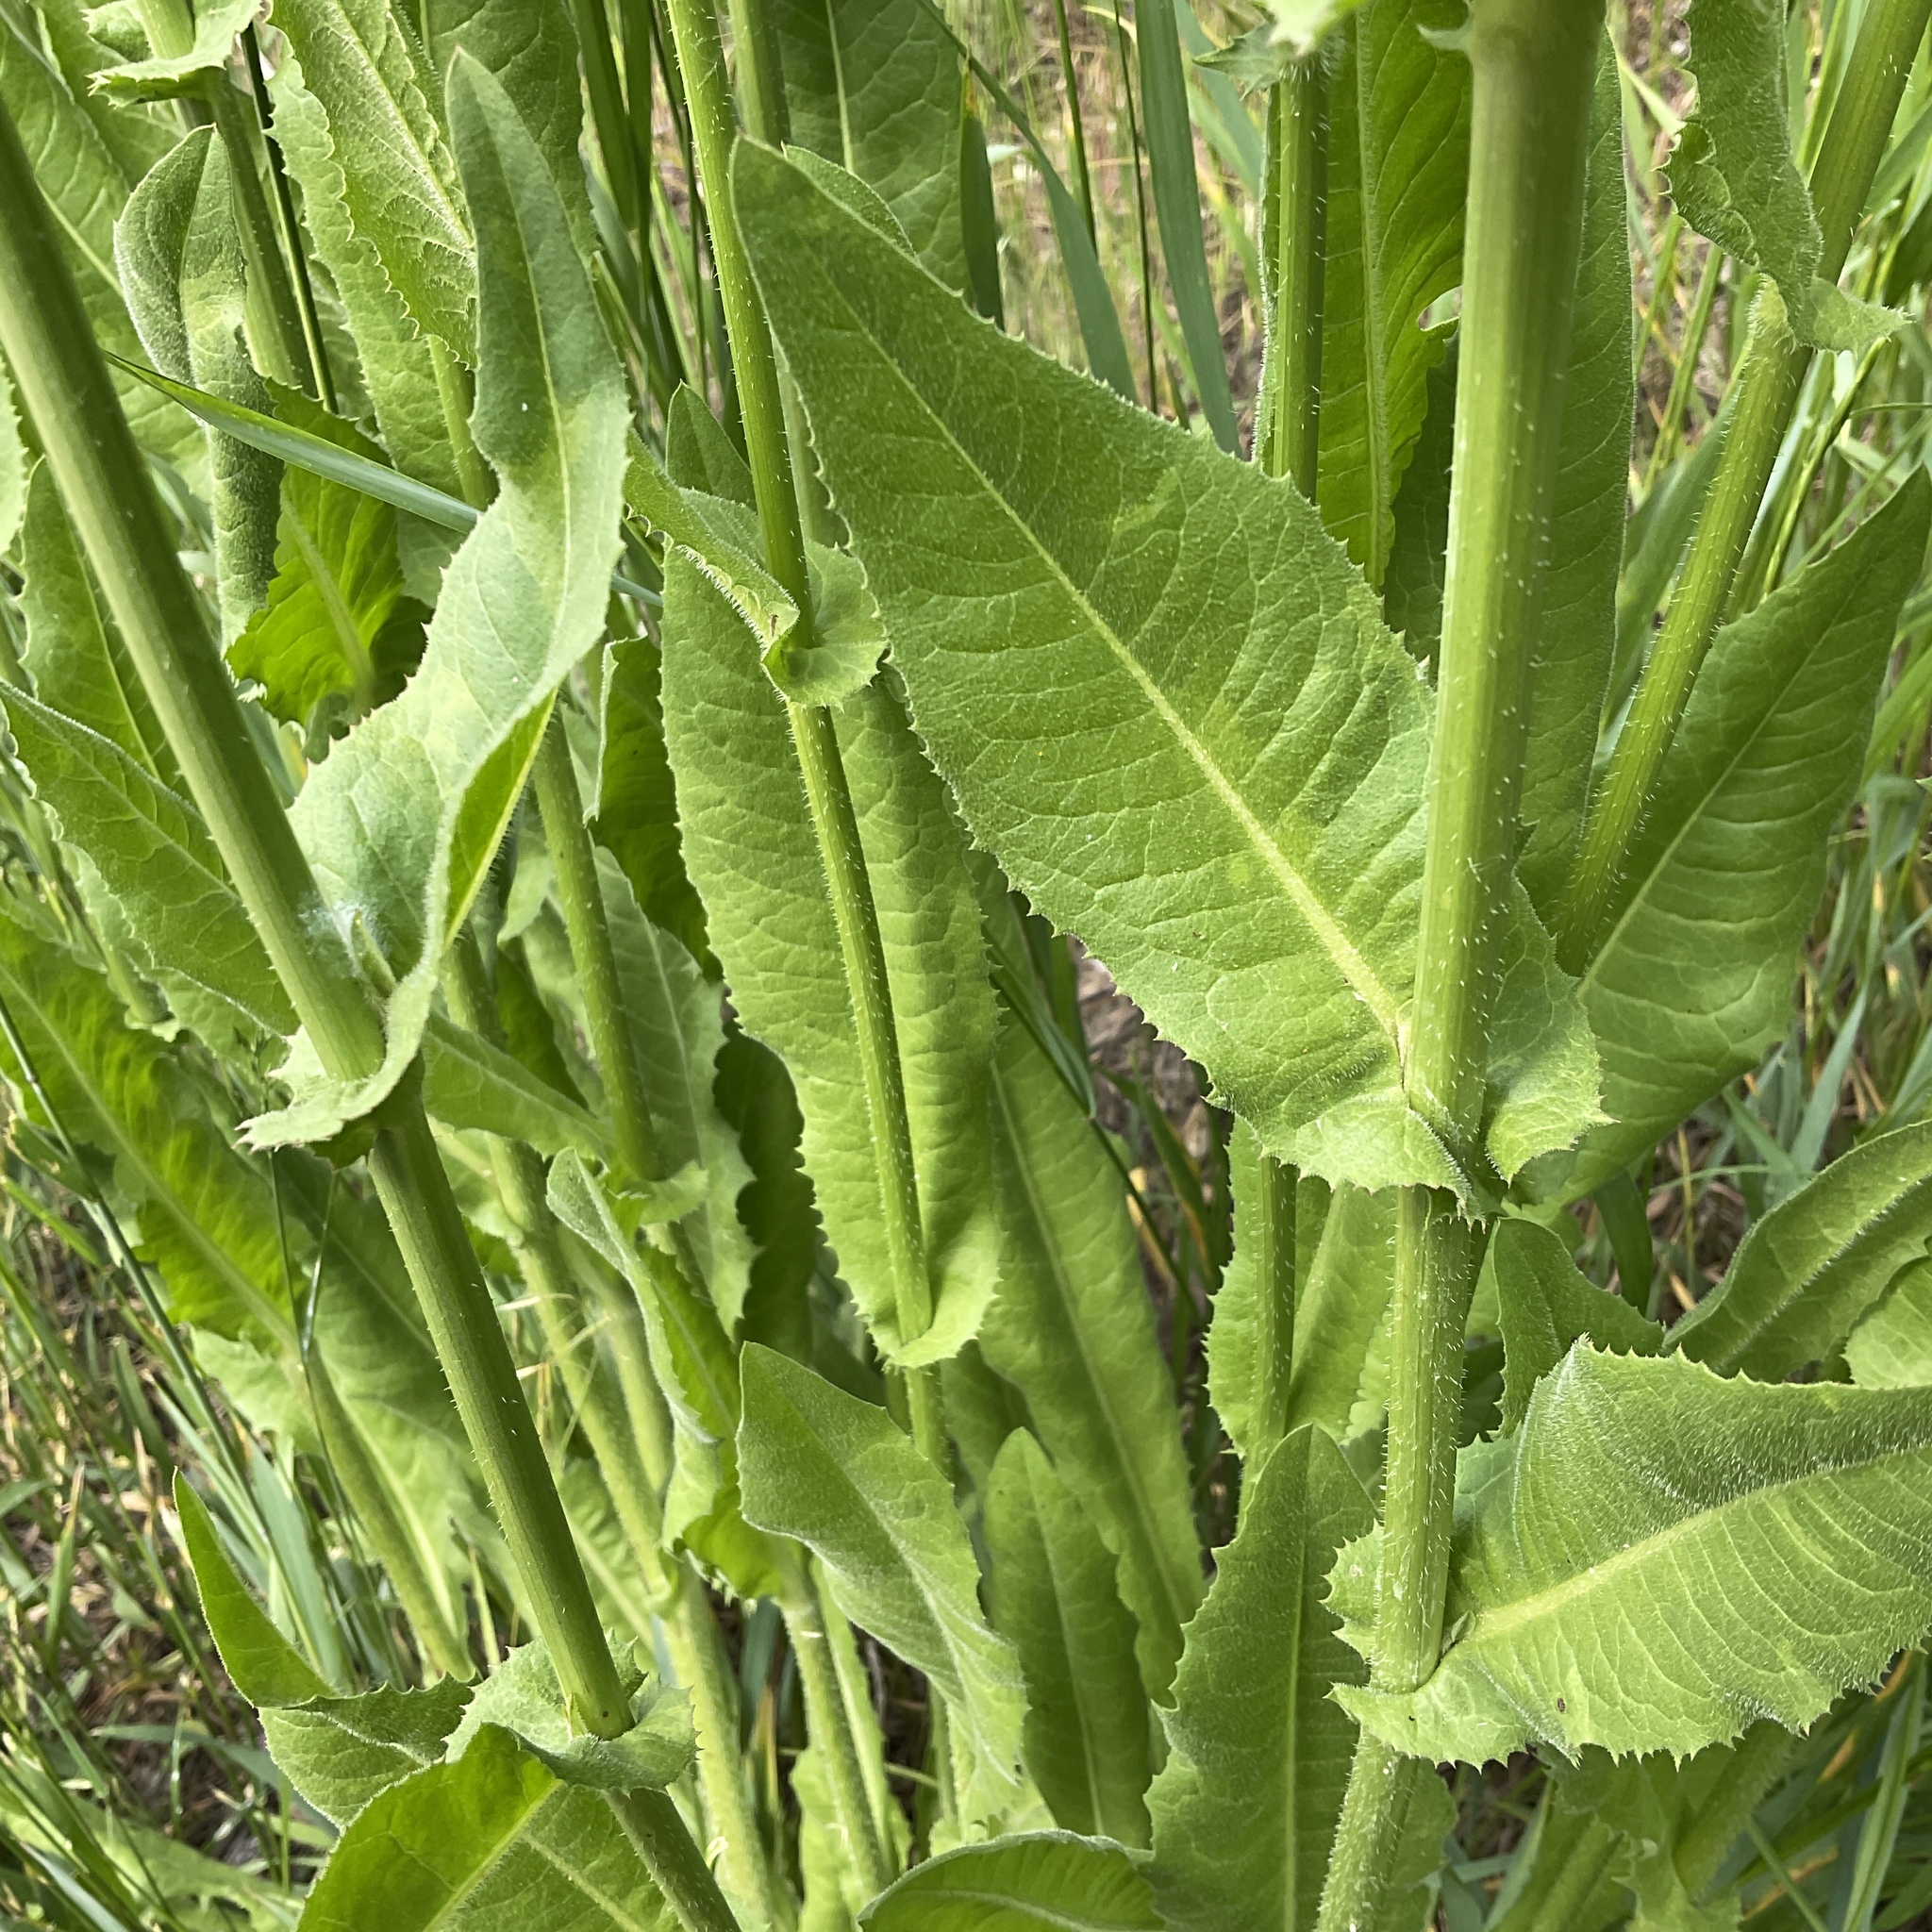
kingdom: Plantae
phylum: Tracheophyta
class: Magnoliopsida
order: Asterales
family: Asteraceae
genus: Cichorium
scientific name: Cichorium intybus
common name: Chicory
